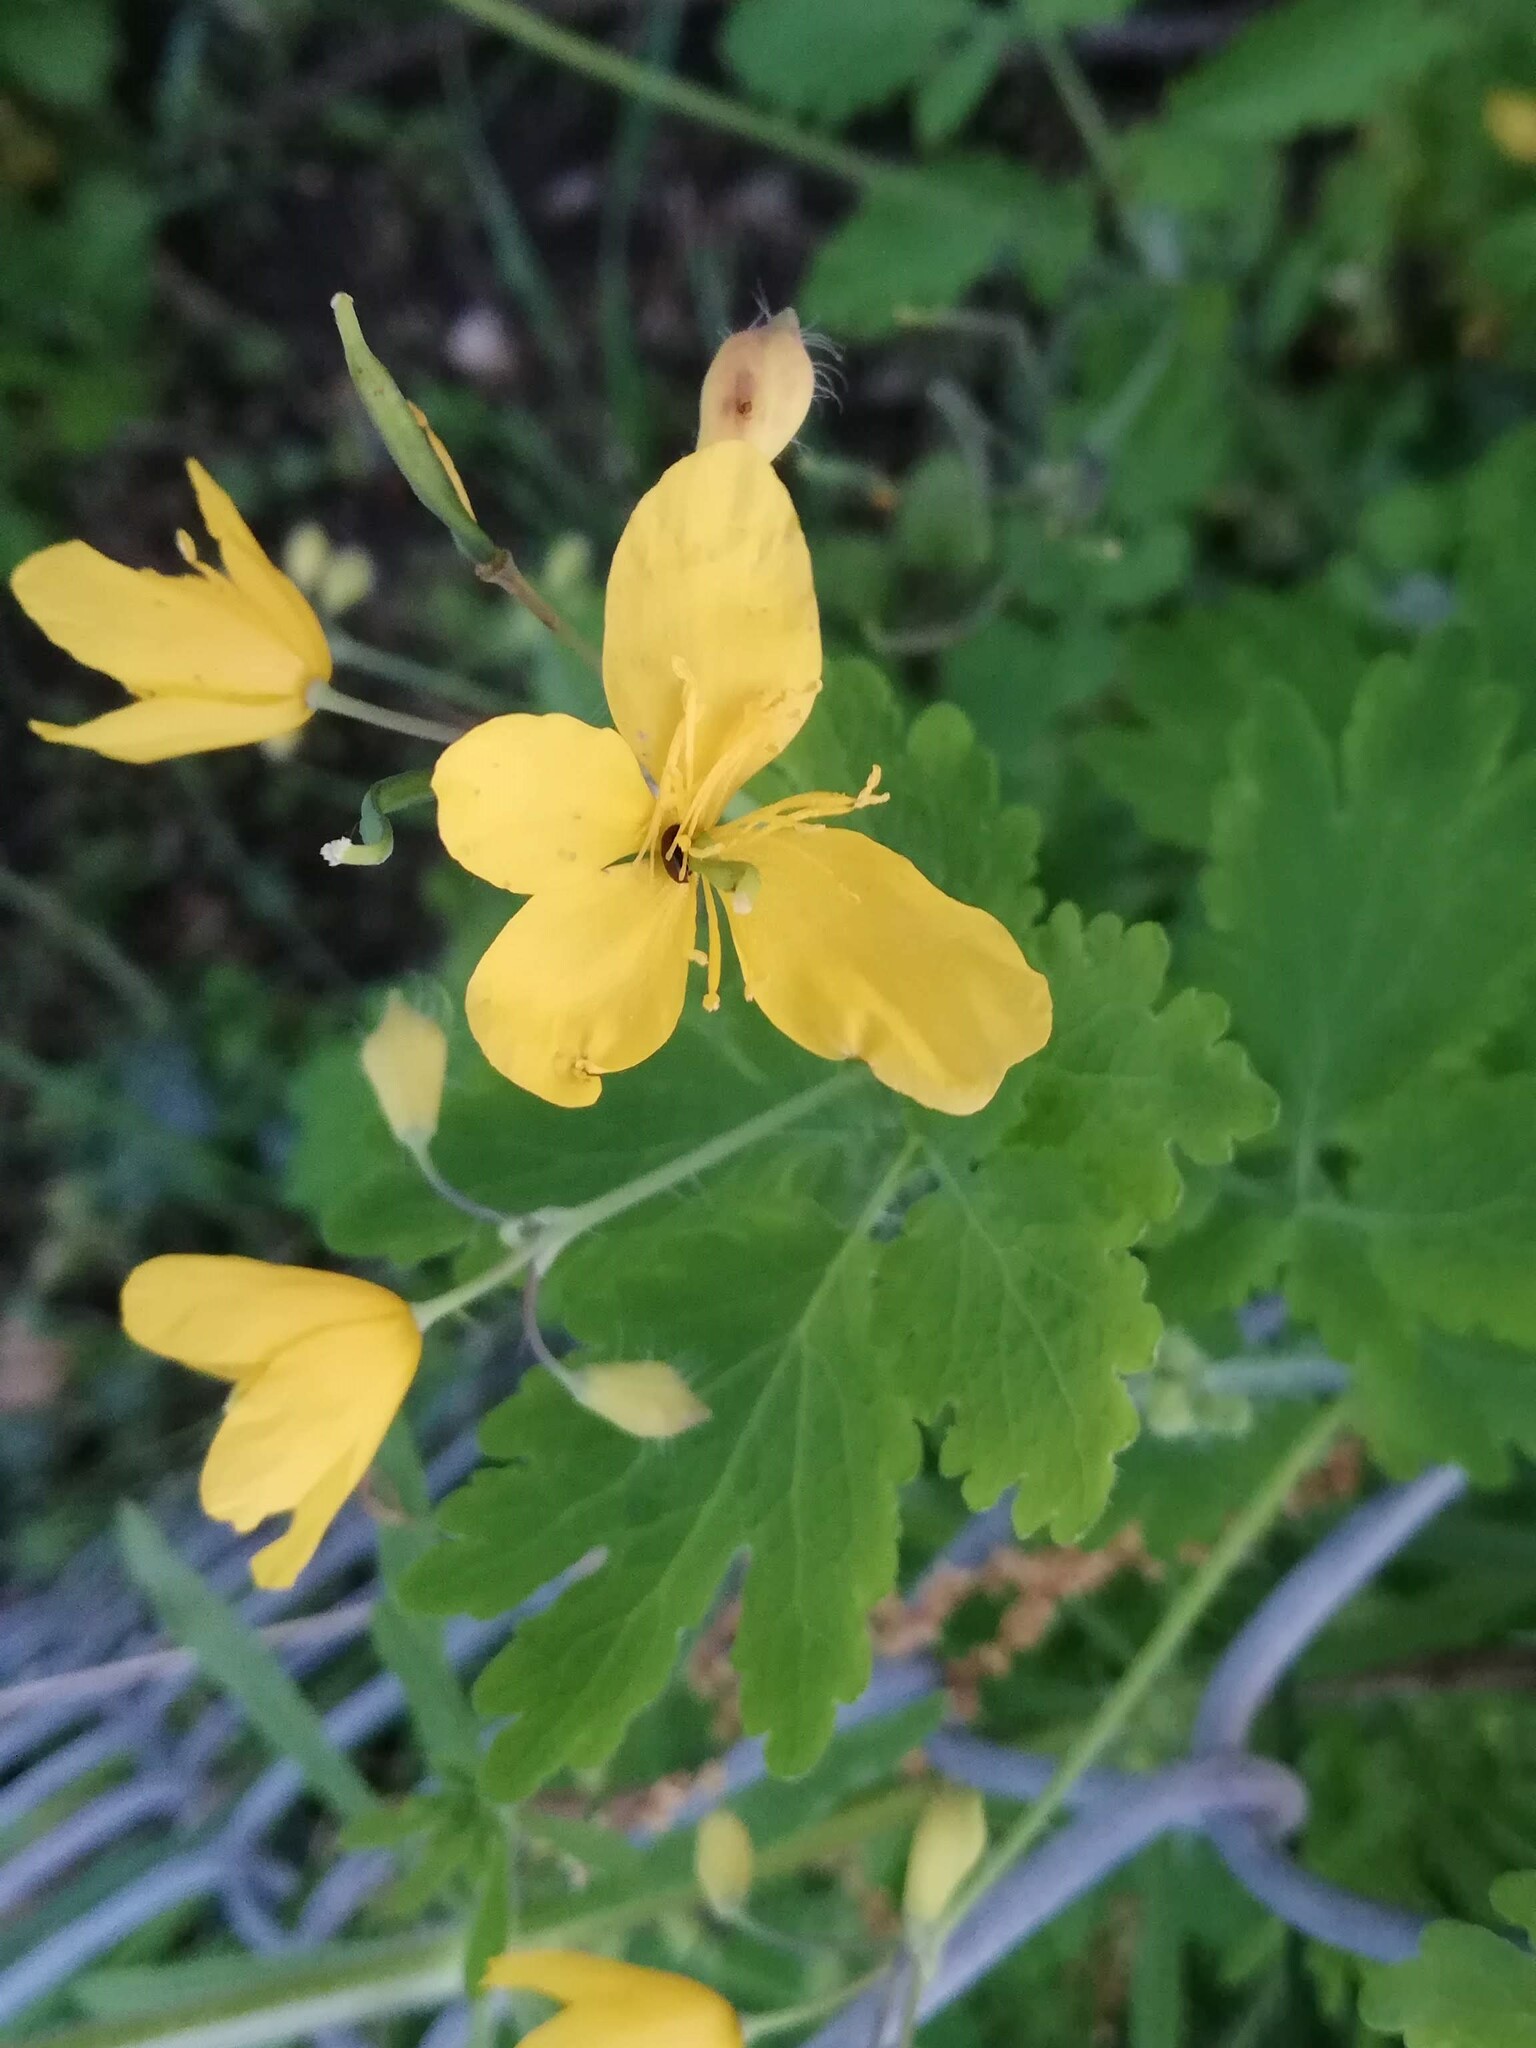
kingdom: Plantae
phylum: Tracheophyta
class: Magnoliopsida
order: Ranunculales
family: Papaveraceae
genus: Chelidonium
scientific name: Chelidonium majus
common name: Greater celandine
